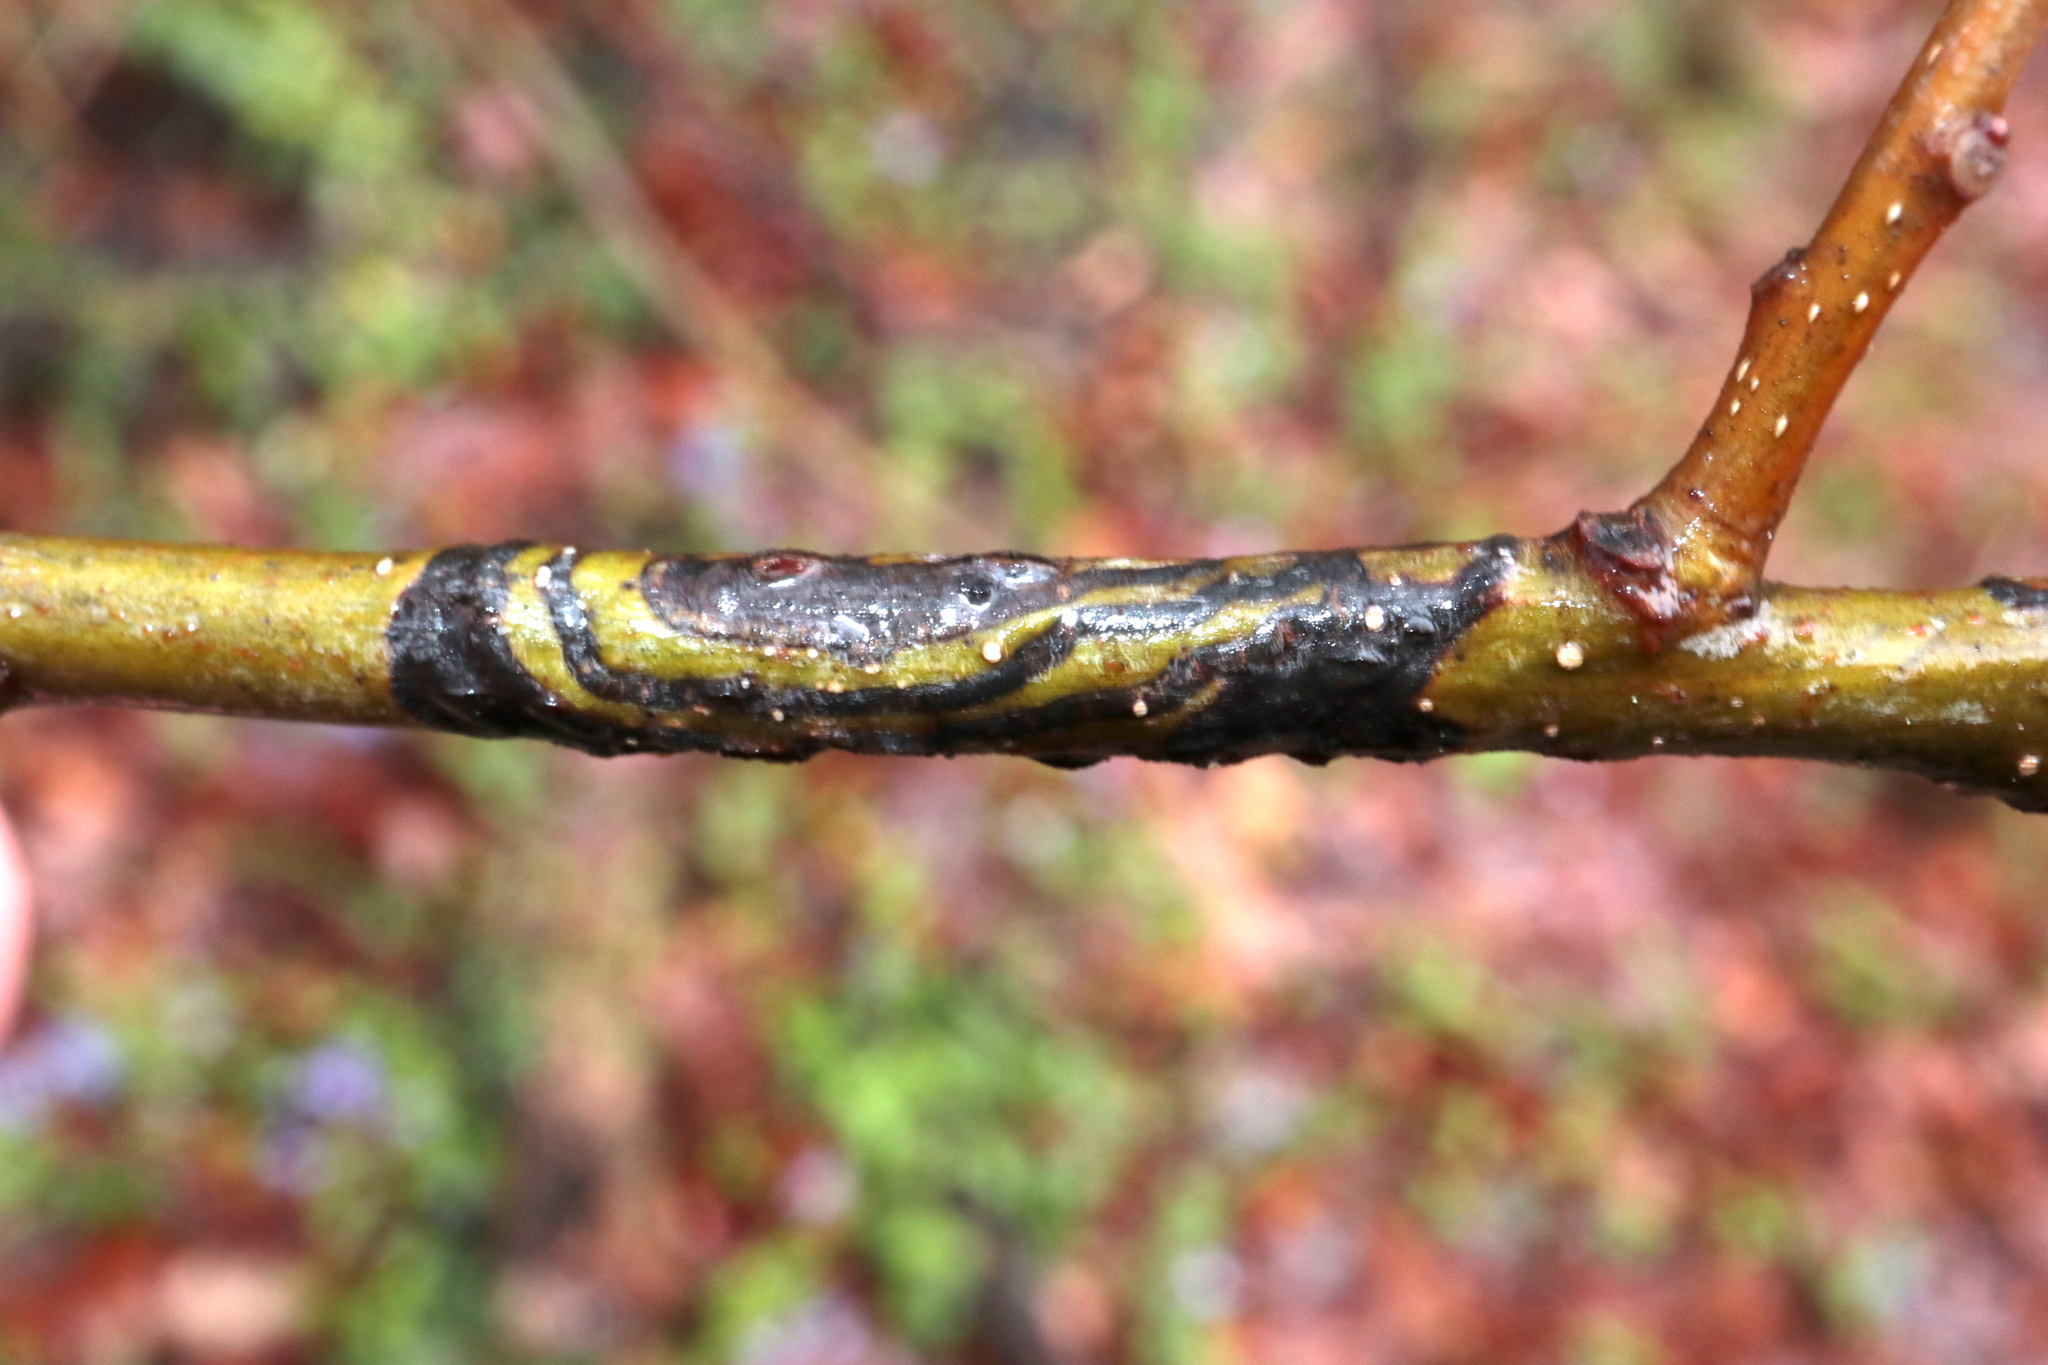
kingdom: Animalia
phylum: Arthropoda
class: Insecta
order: Lepidoptera
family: Nepticulidae
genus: Zimmermannia
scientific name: Zimmermannia bosquella
